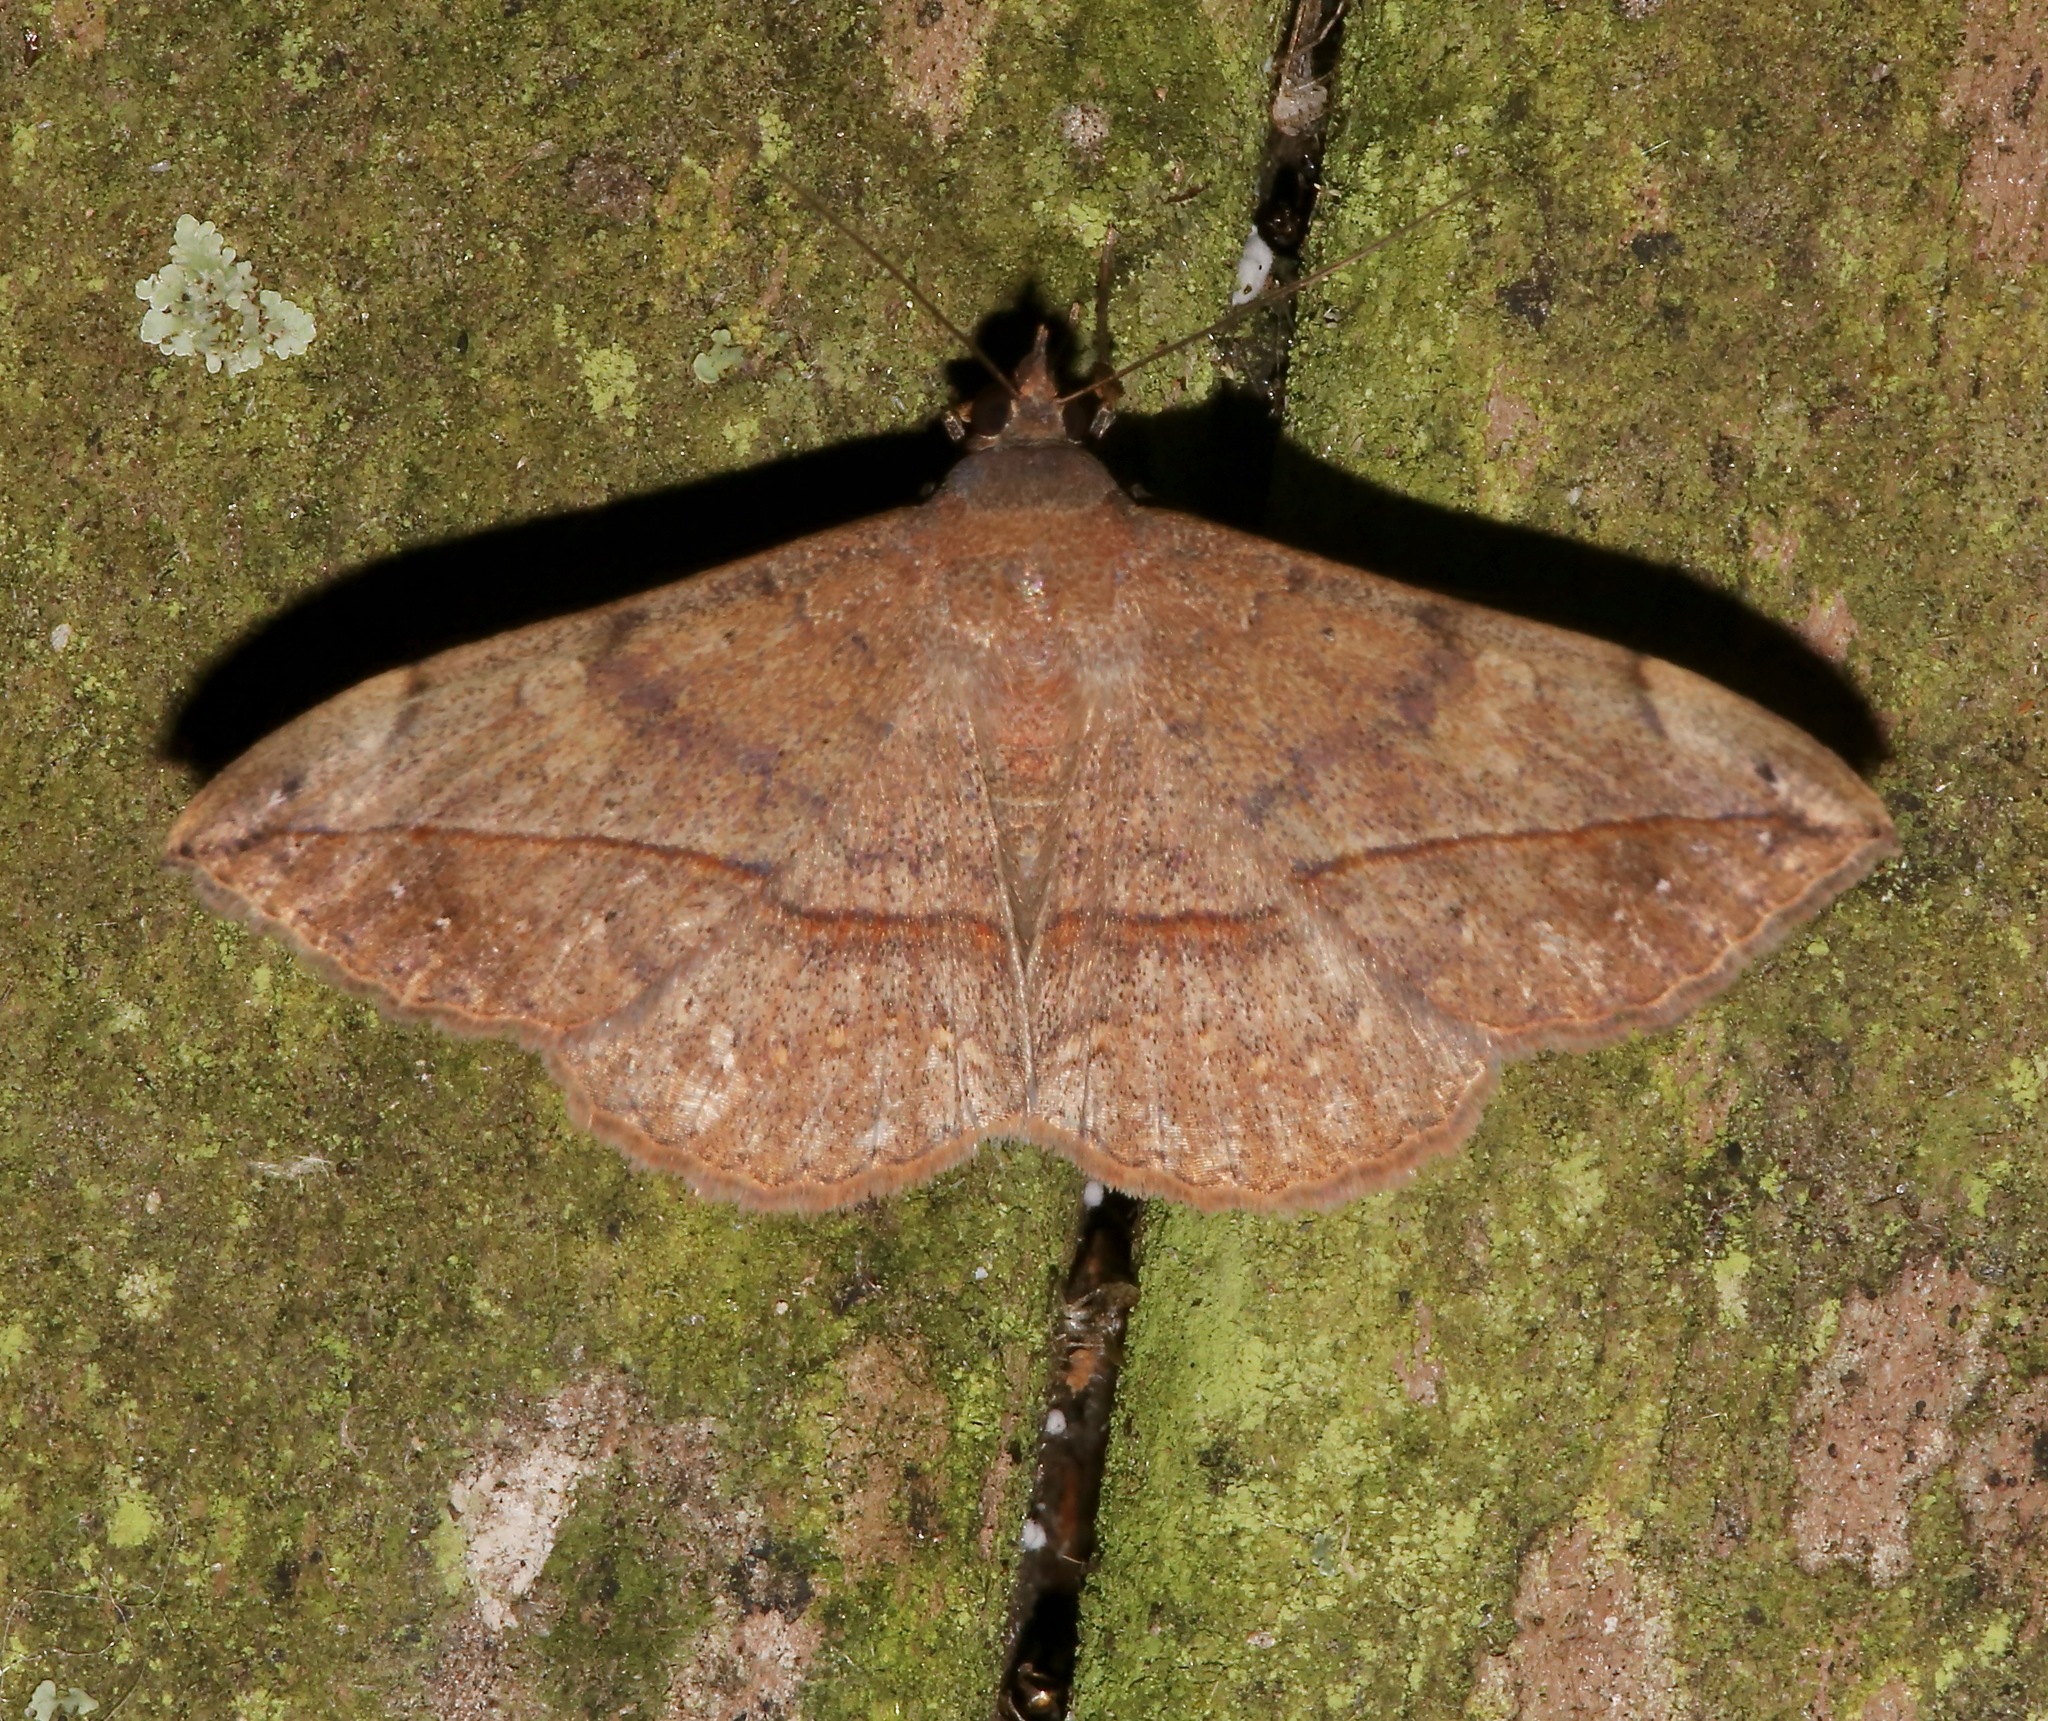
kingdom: Animalia
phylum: Arthropoda
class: Insecta
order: Lepidoptera
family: Erebidae
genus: Anticarsia
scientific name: Anticarsia gemmatalis
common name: Cutworm moth
